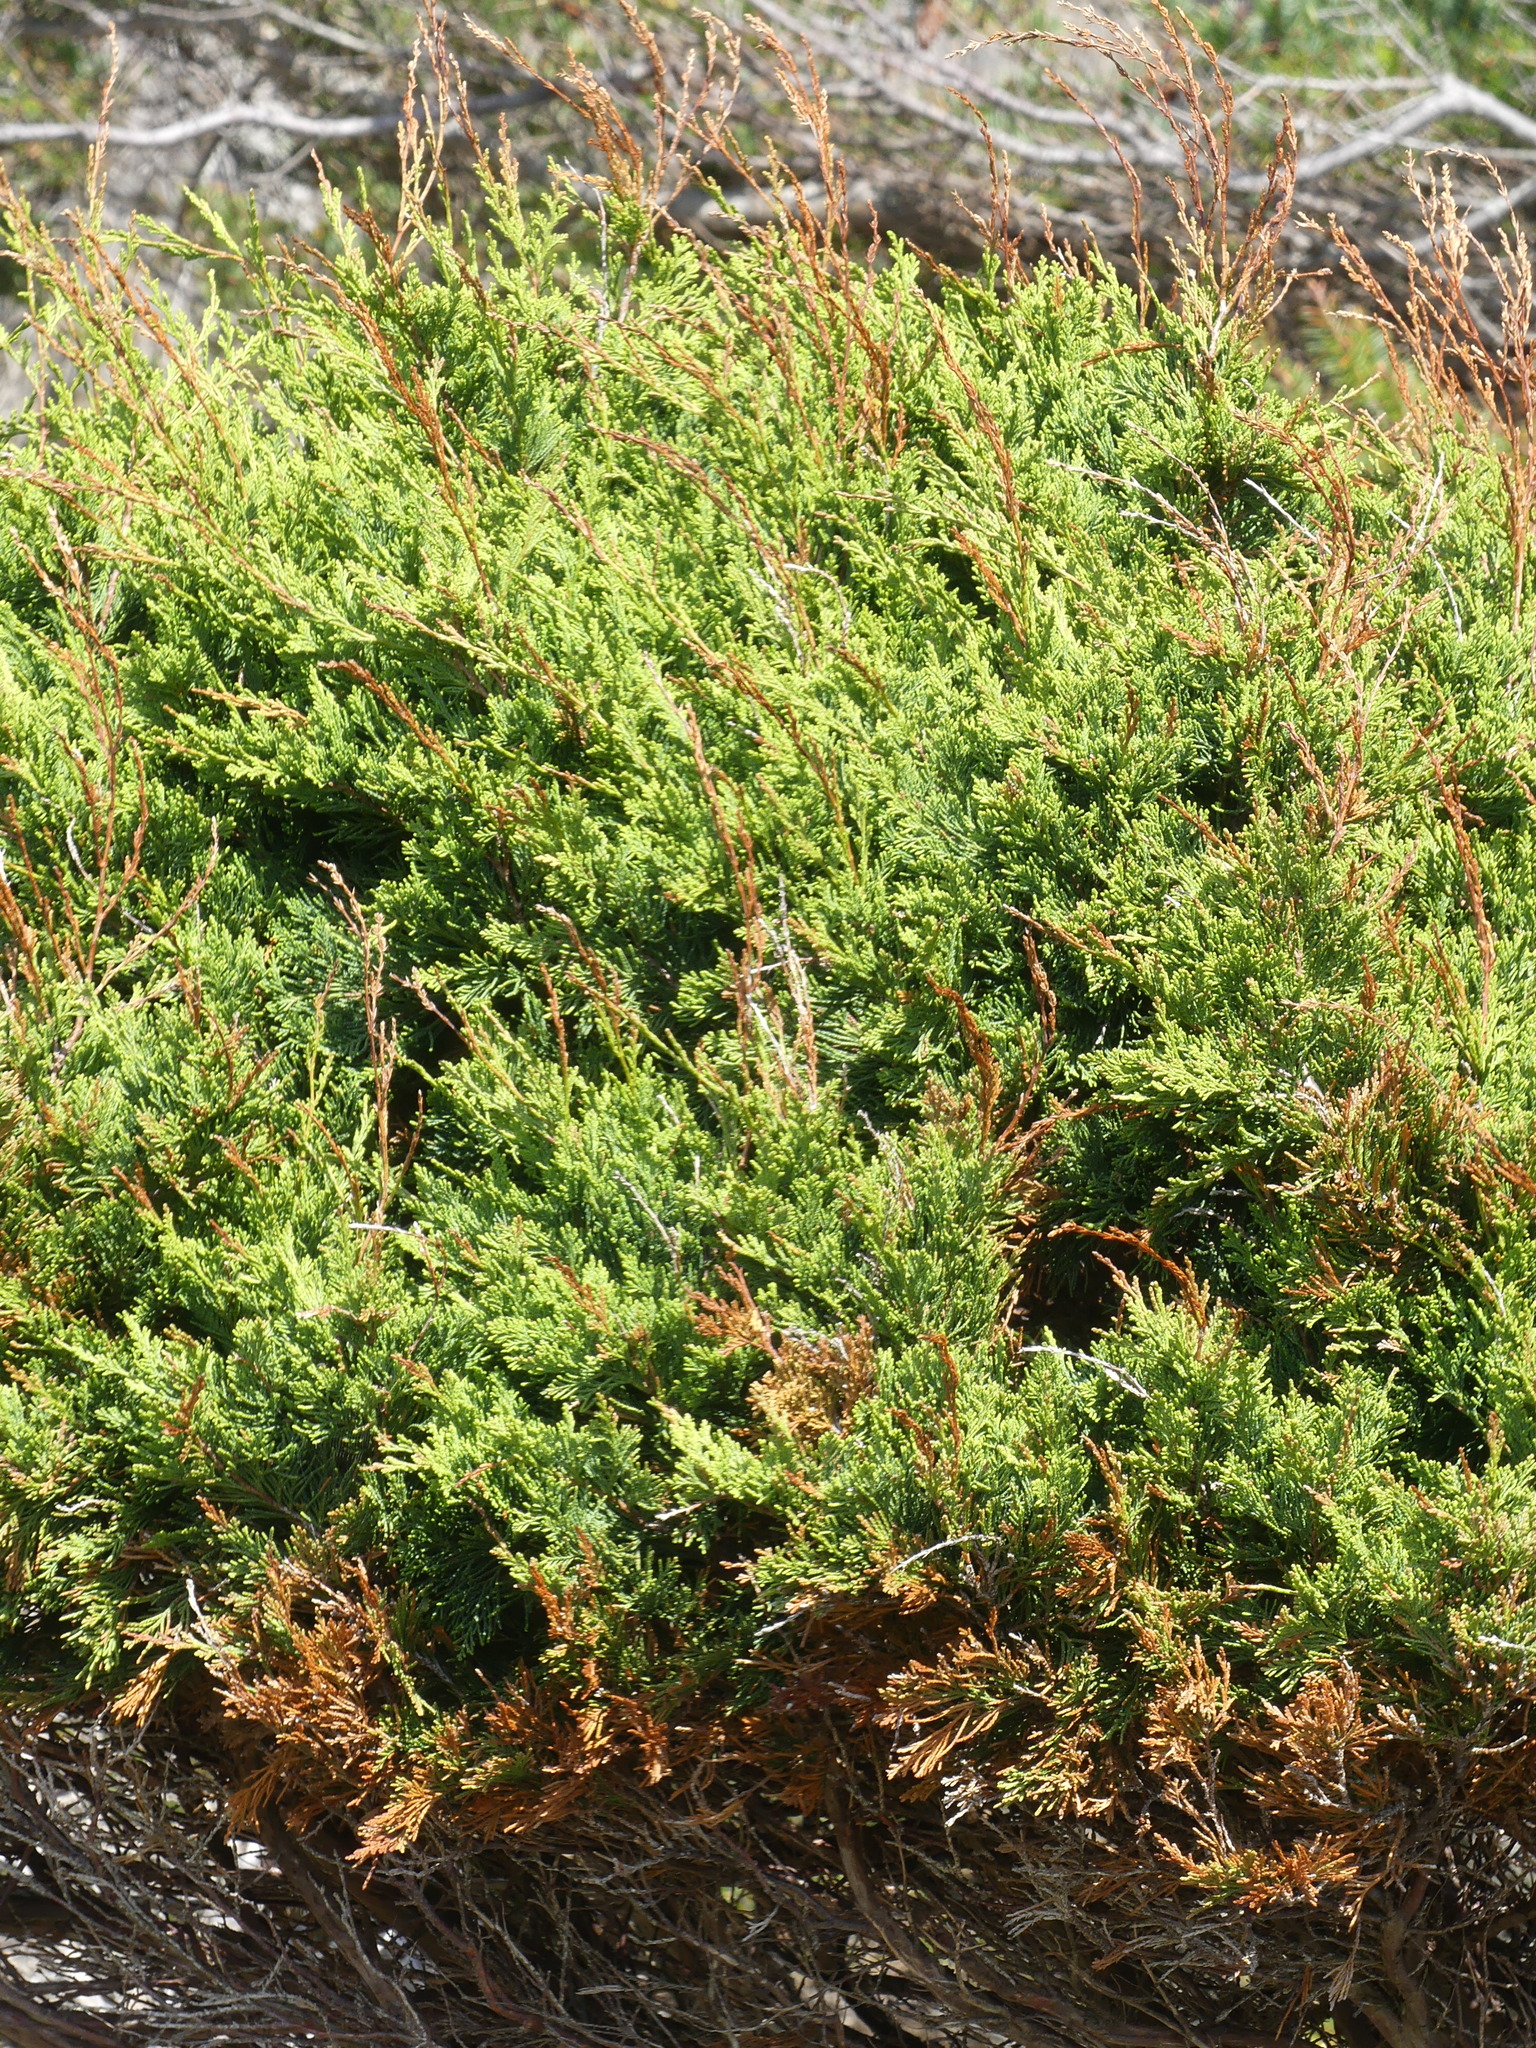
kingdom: Plantae
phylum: Tracheophyta
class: Pinopsida
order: Pinales
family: Cupressaceae
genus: Juniperus
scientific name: Juniperus scopulorum
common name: Rocky mountain juniper
